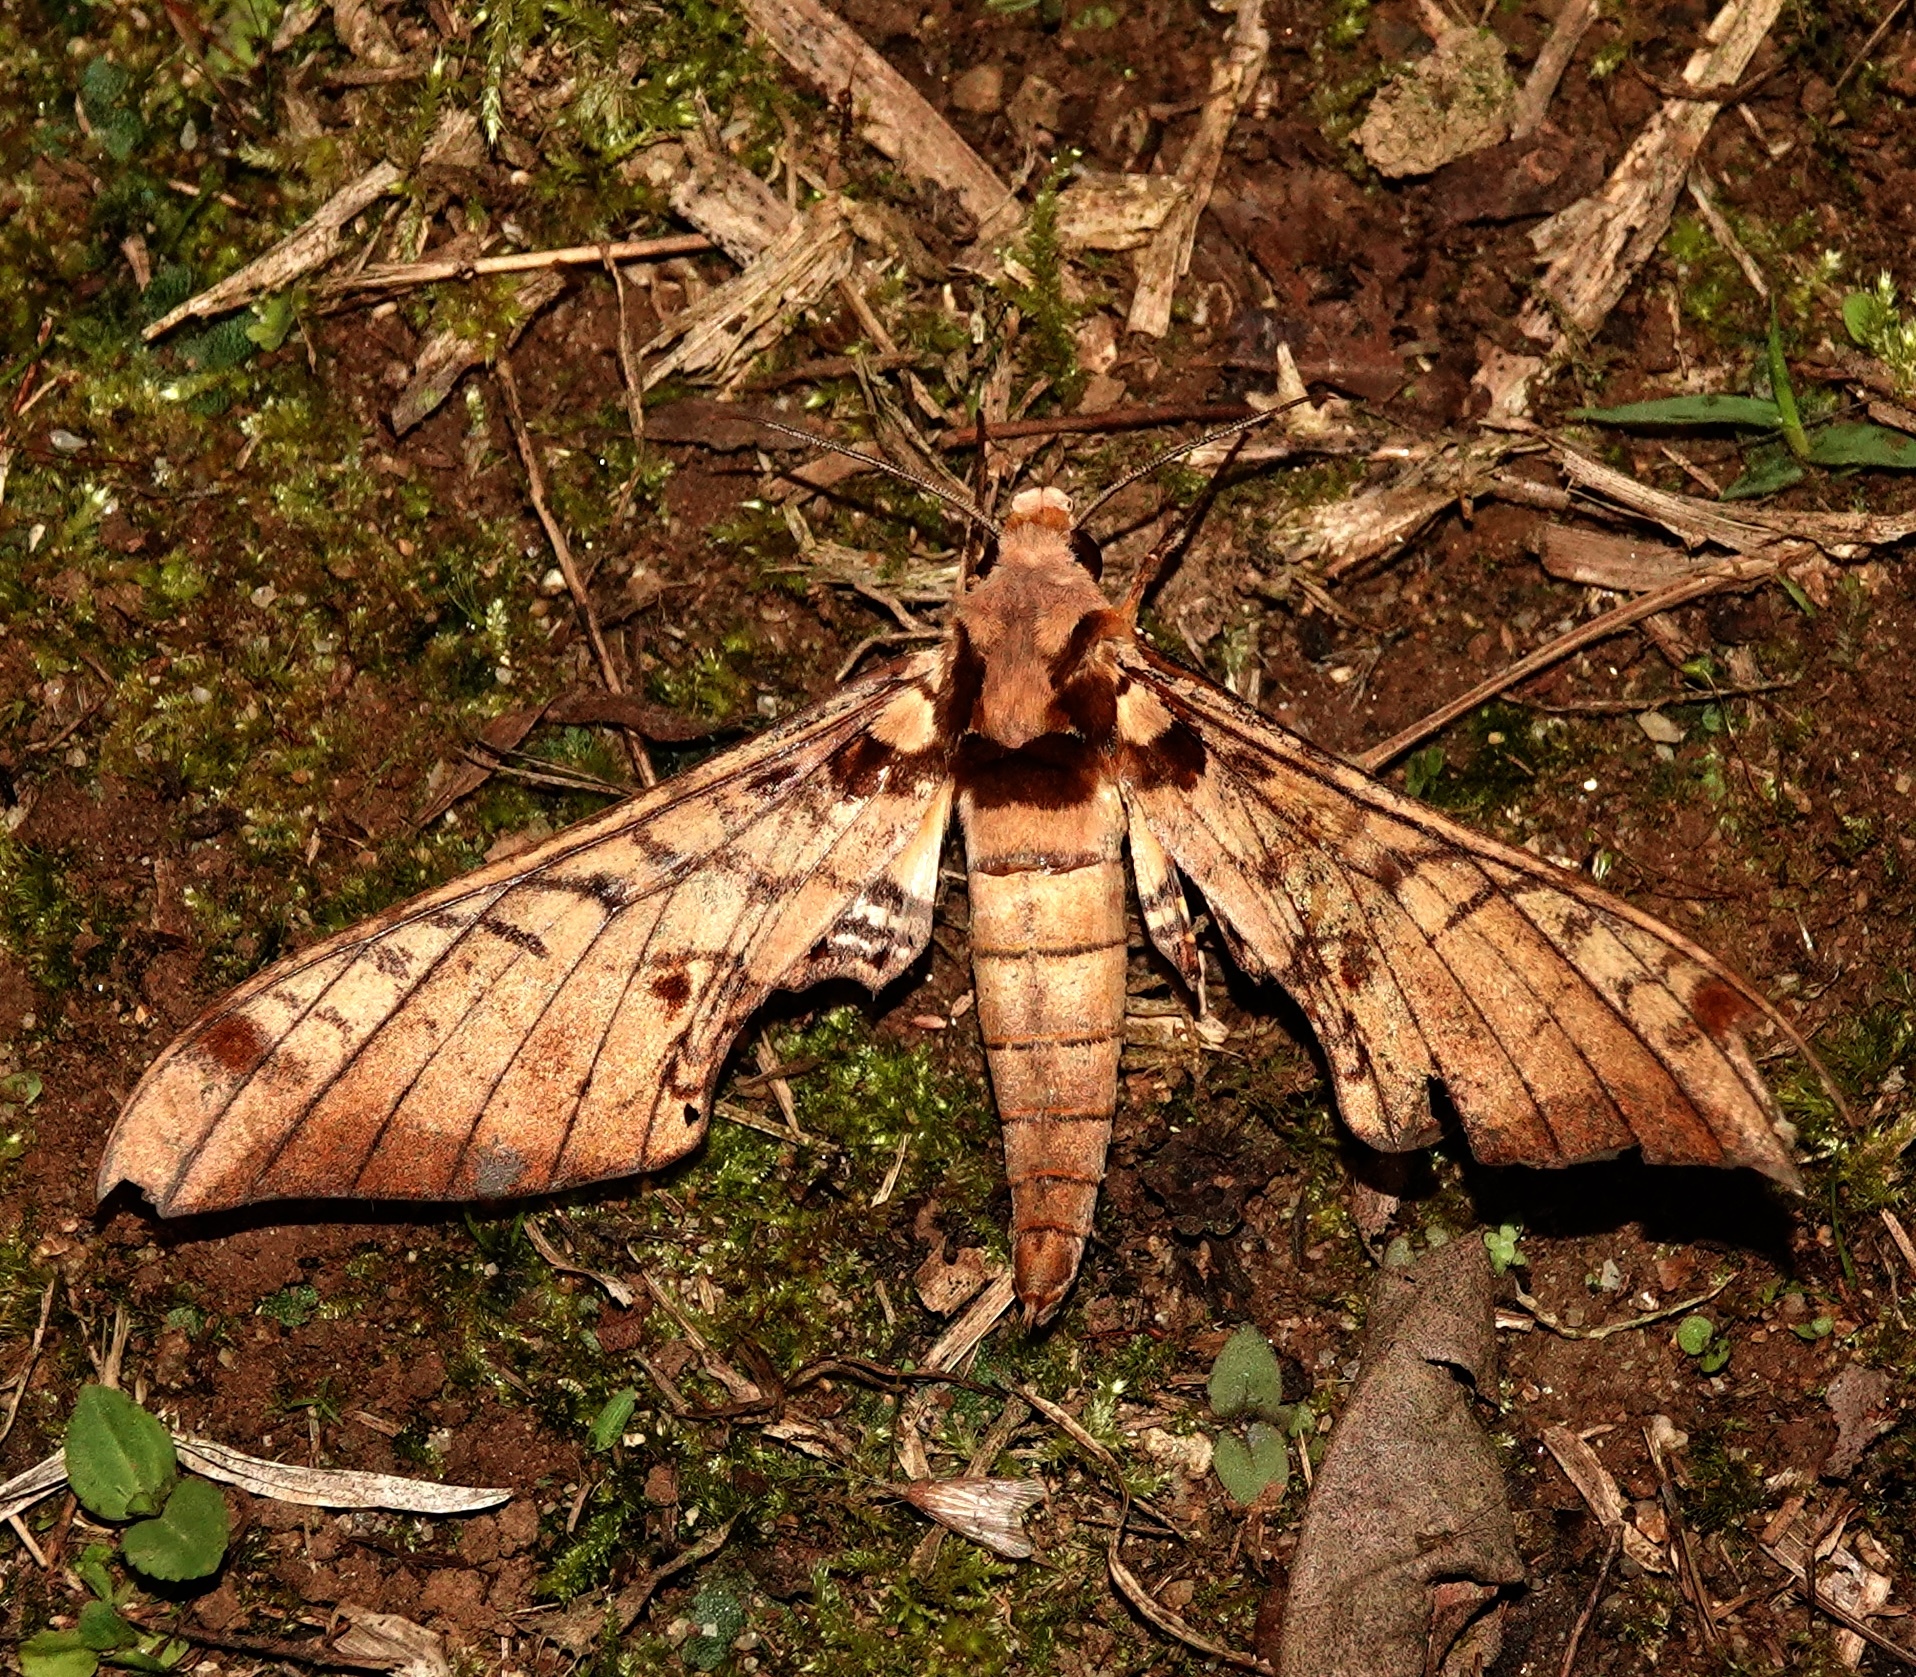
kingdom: Animalia
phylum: Arthropoda
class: Insecta
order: Lepidoptera
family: Sphingidae
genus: Adhemarius
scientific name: Adhemarius tigrina
